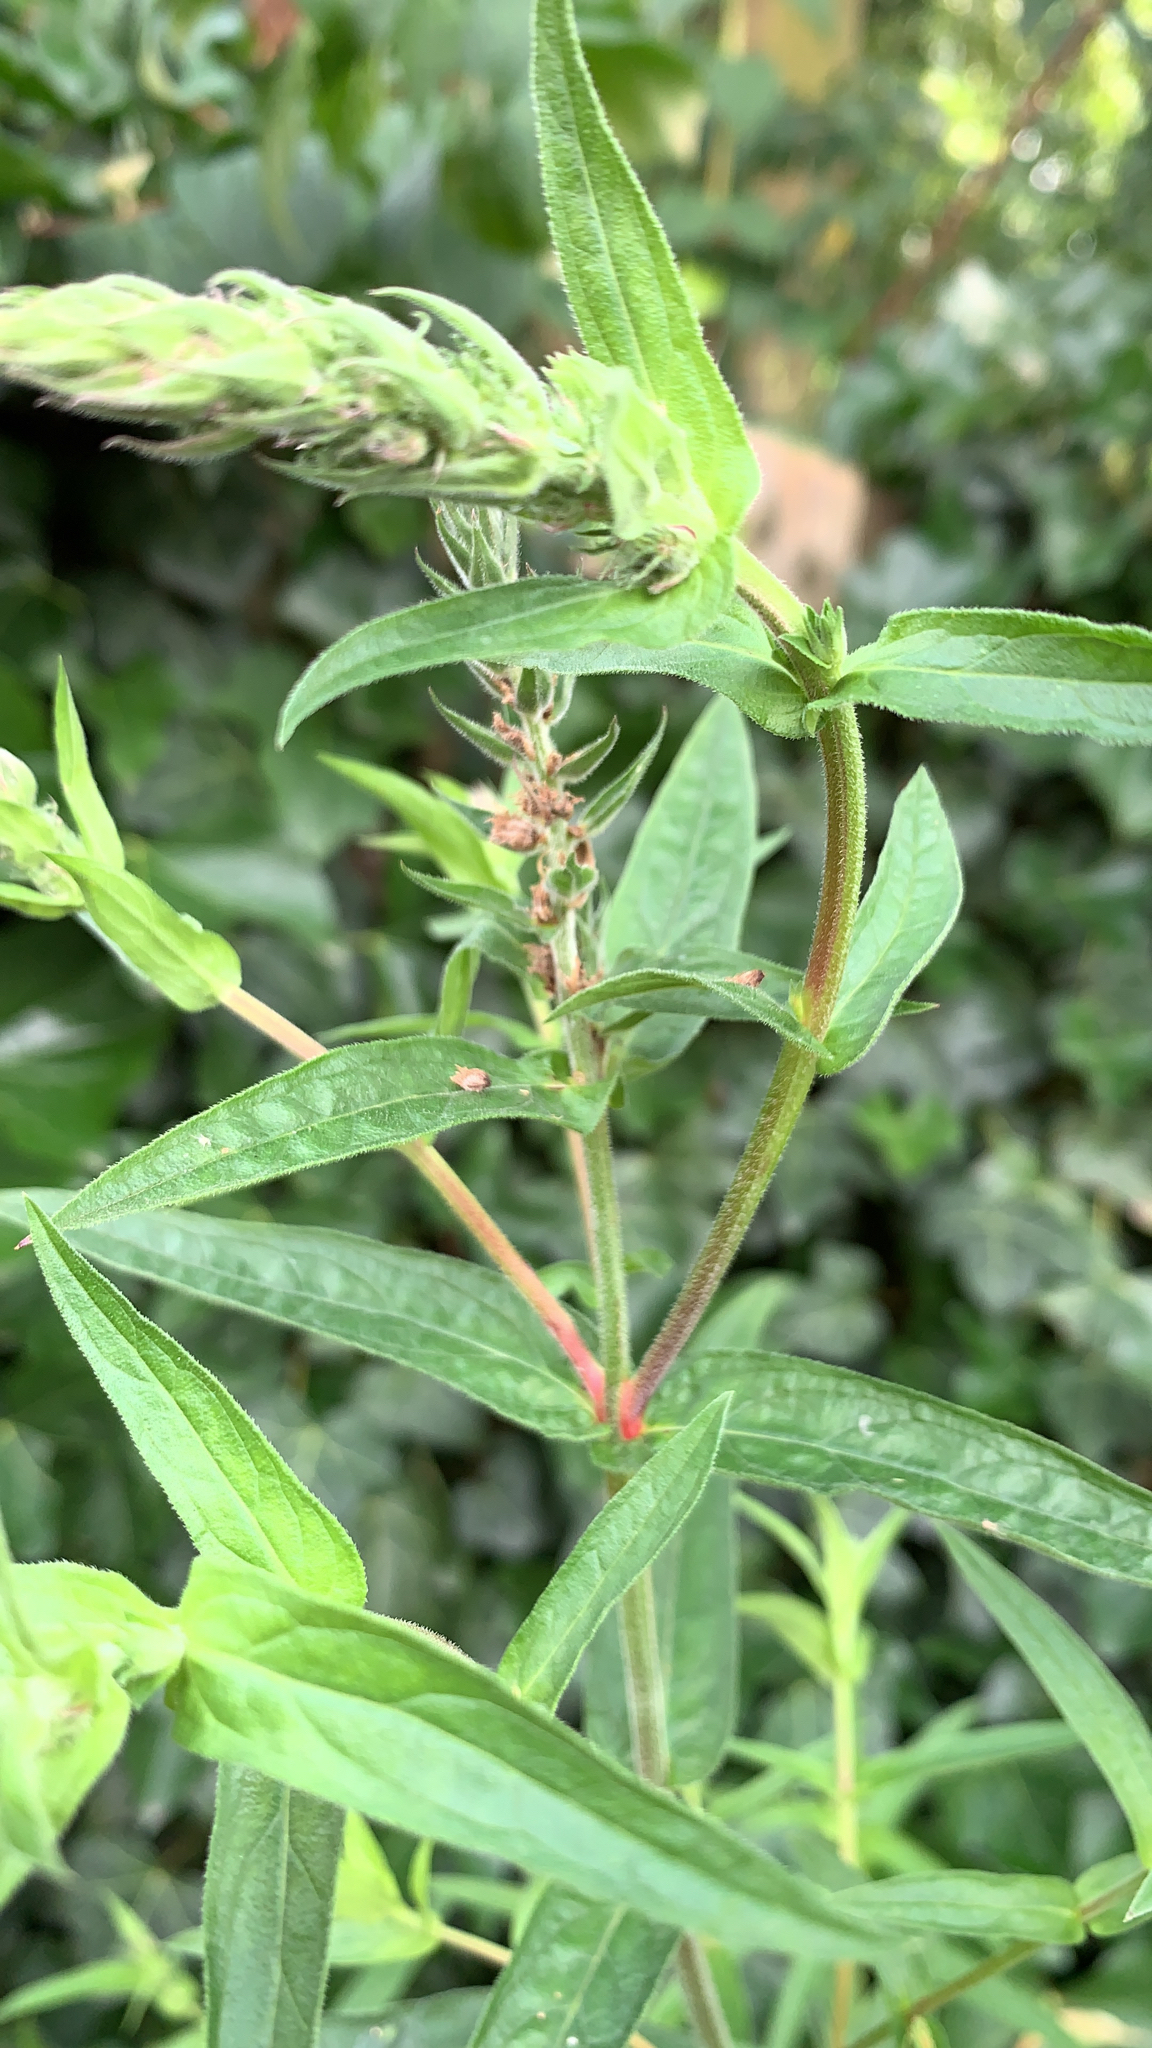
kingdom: Plantae
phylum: Tracheophyta
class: Magnoliopsida
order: Myrtales
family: Lythraceae
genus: Lythrum
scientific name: Lythrum salicaria
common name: Purple loosestrife
